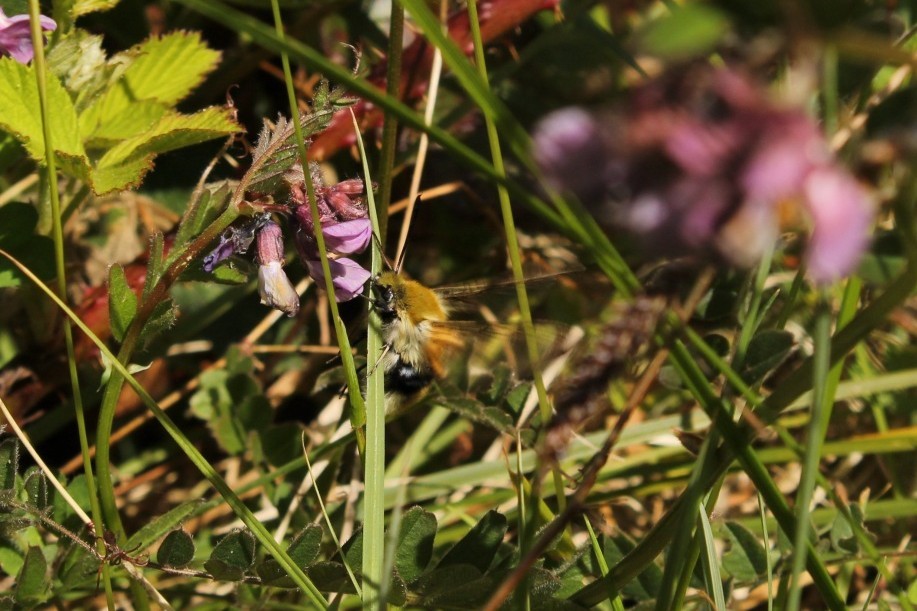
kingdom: Animalia
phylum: Arthropoda
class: Insecta
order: Lepidoptera
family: Sphingidae
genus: Hemaris
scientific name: Hemaris tityus
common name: Narrow-bordered bee hawk-moth
